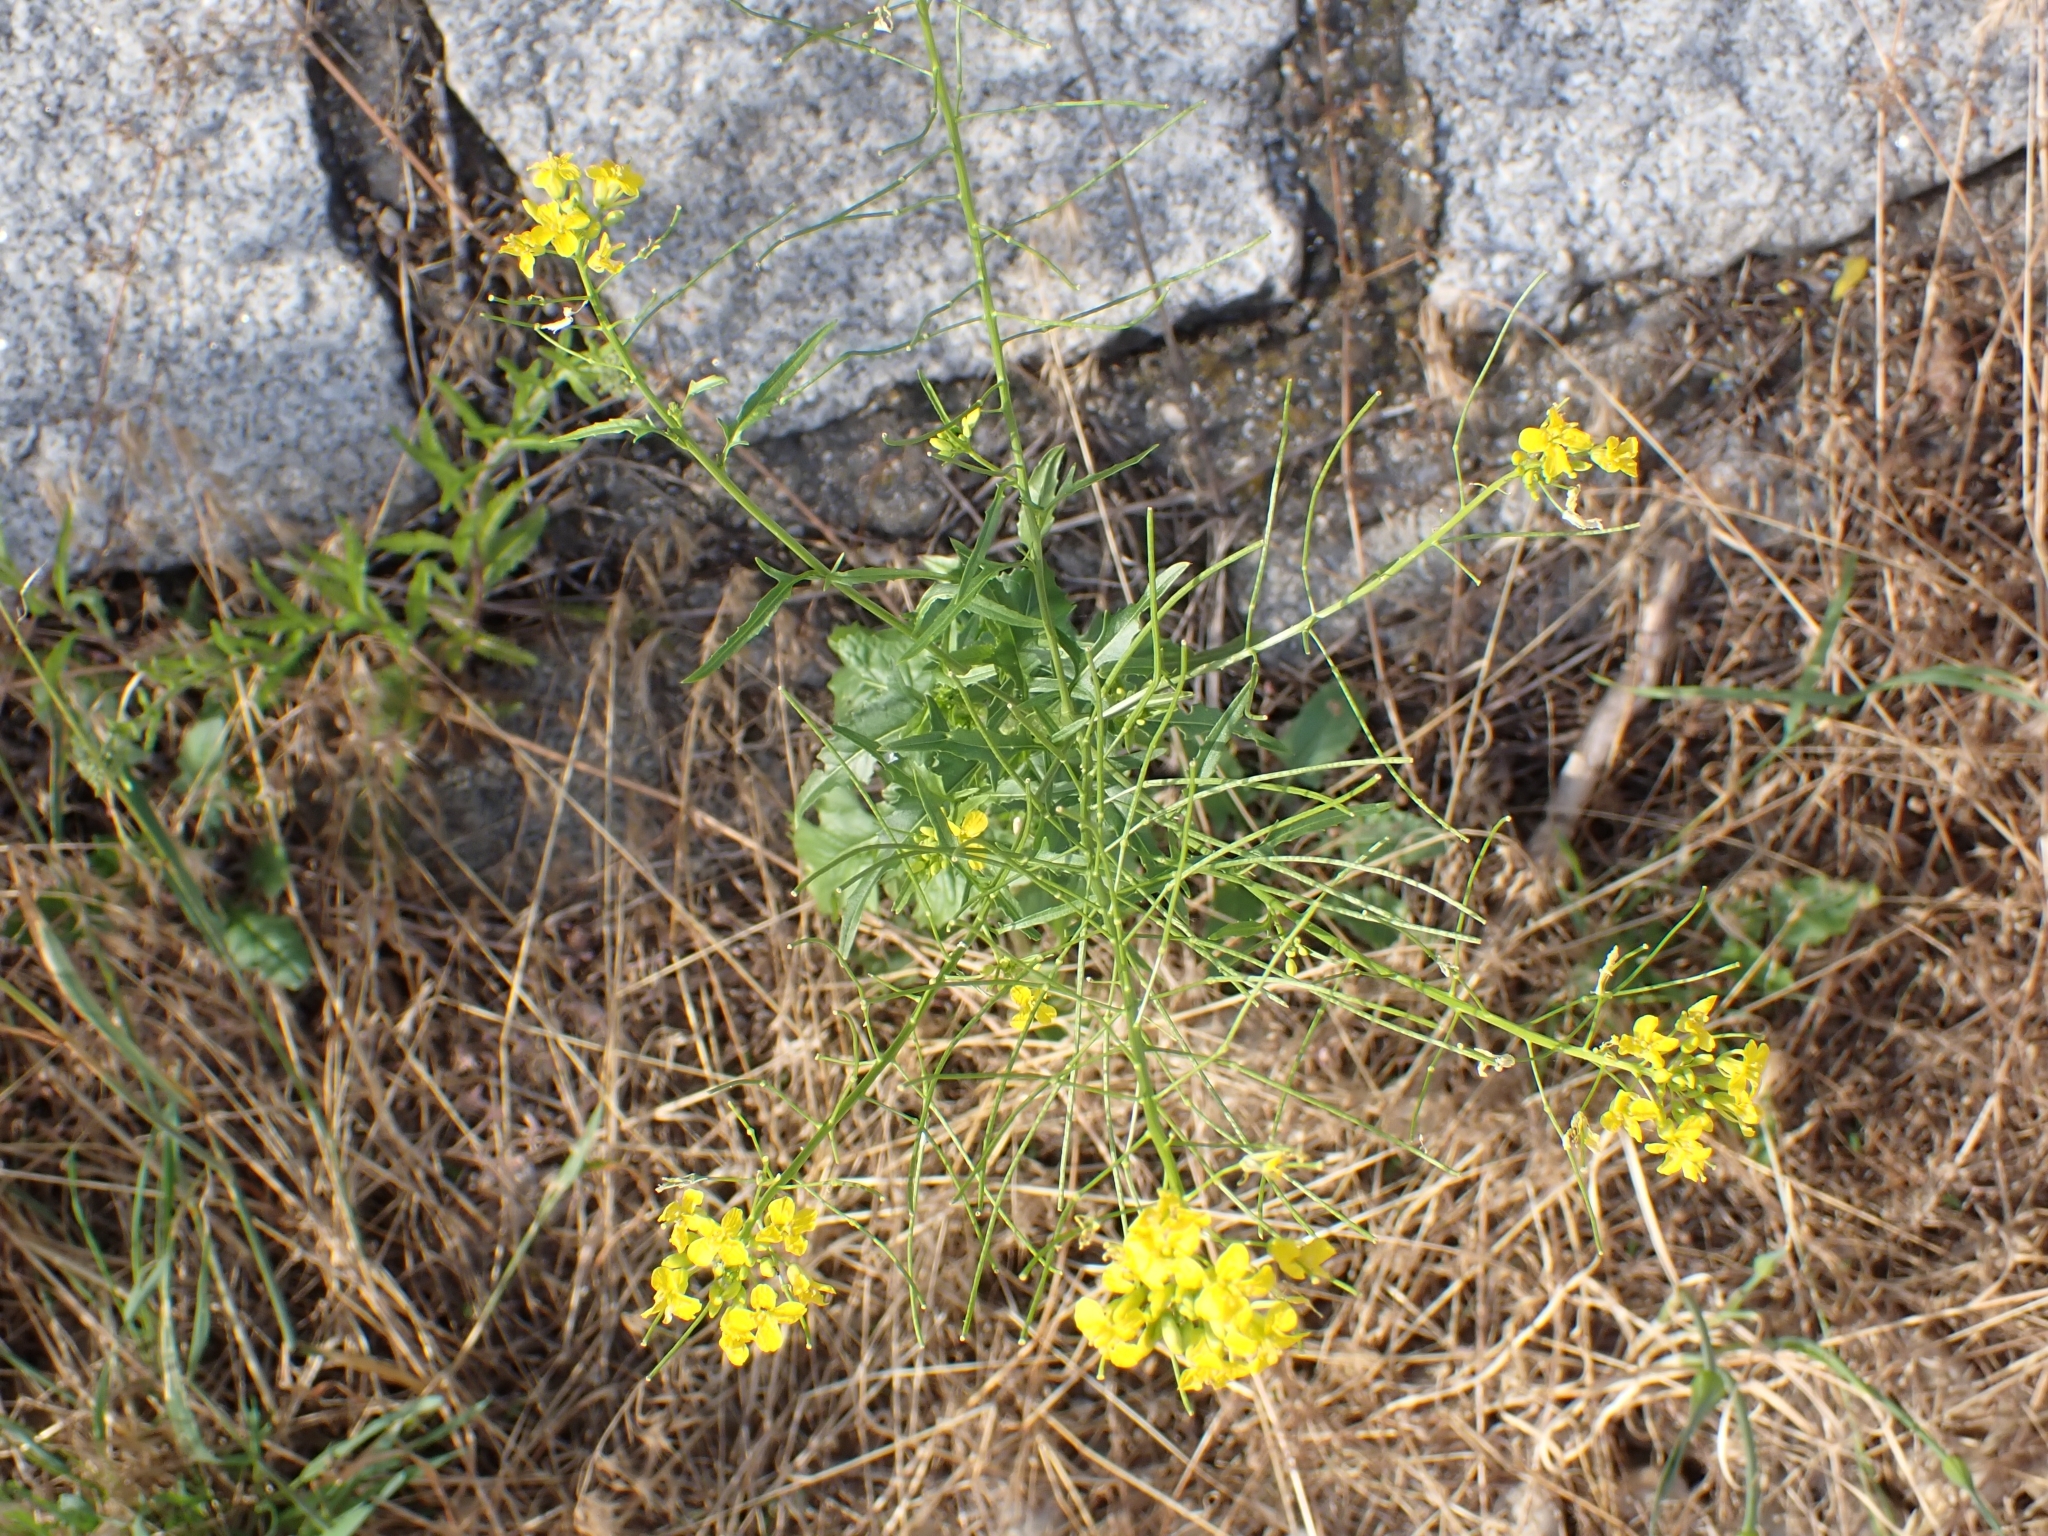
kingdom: Plantae
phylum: Tracheophyta
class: Magnoliopsida
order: Brassicales
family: Brassicaceae
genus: Sisymbrium
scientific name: Sisymbrium loeselii
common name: False london-rocket
